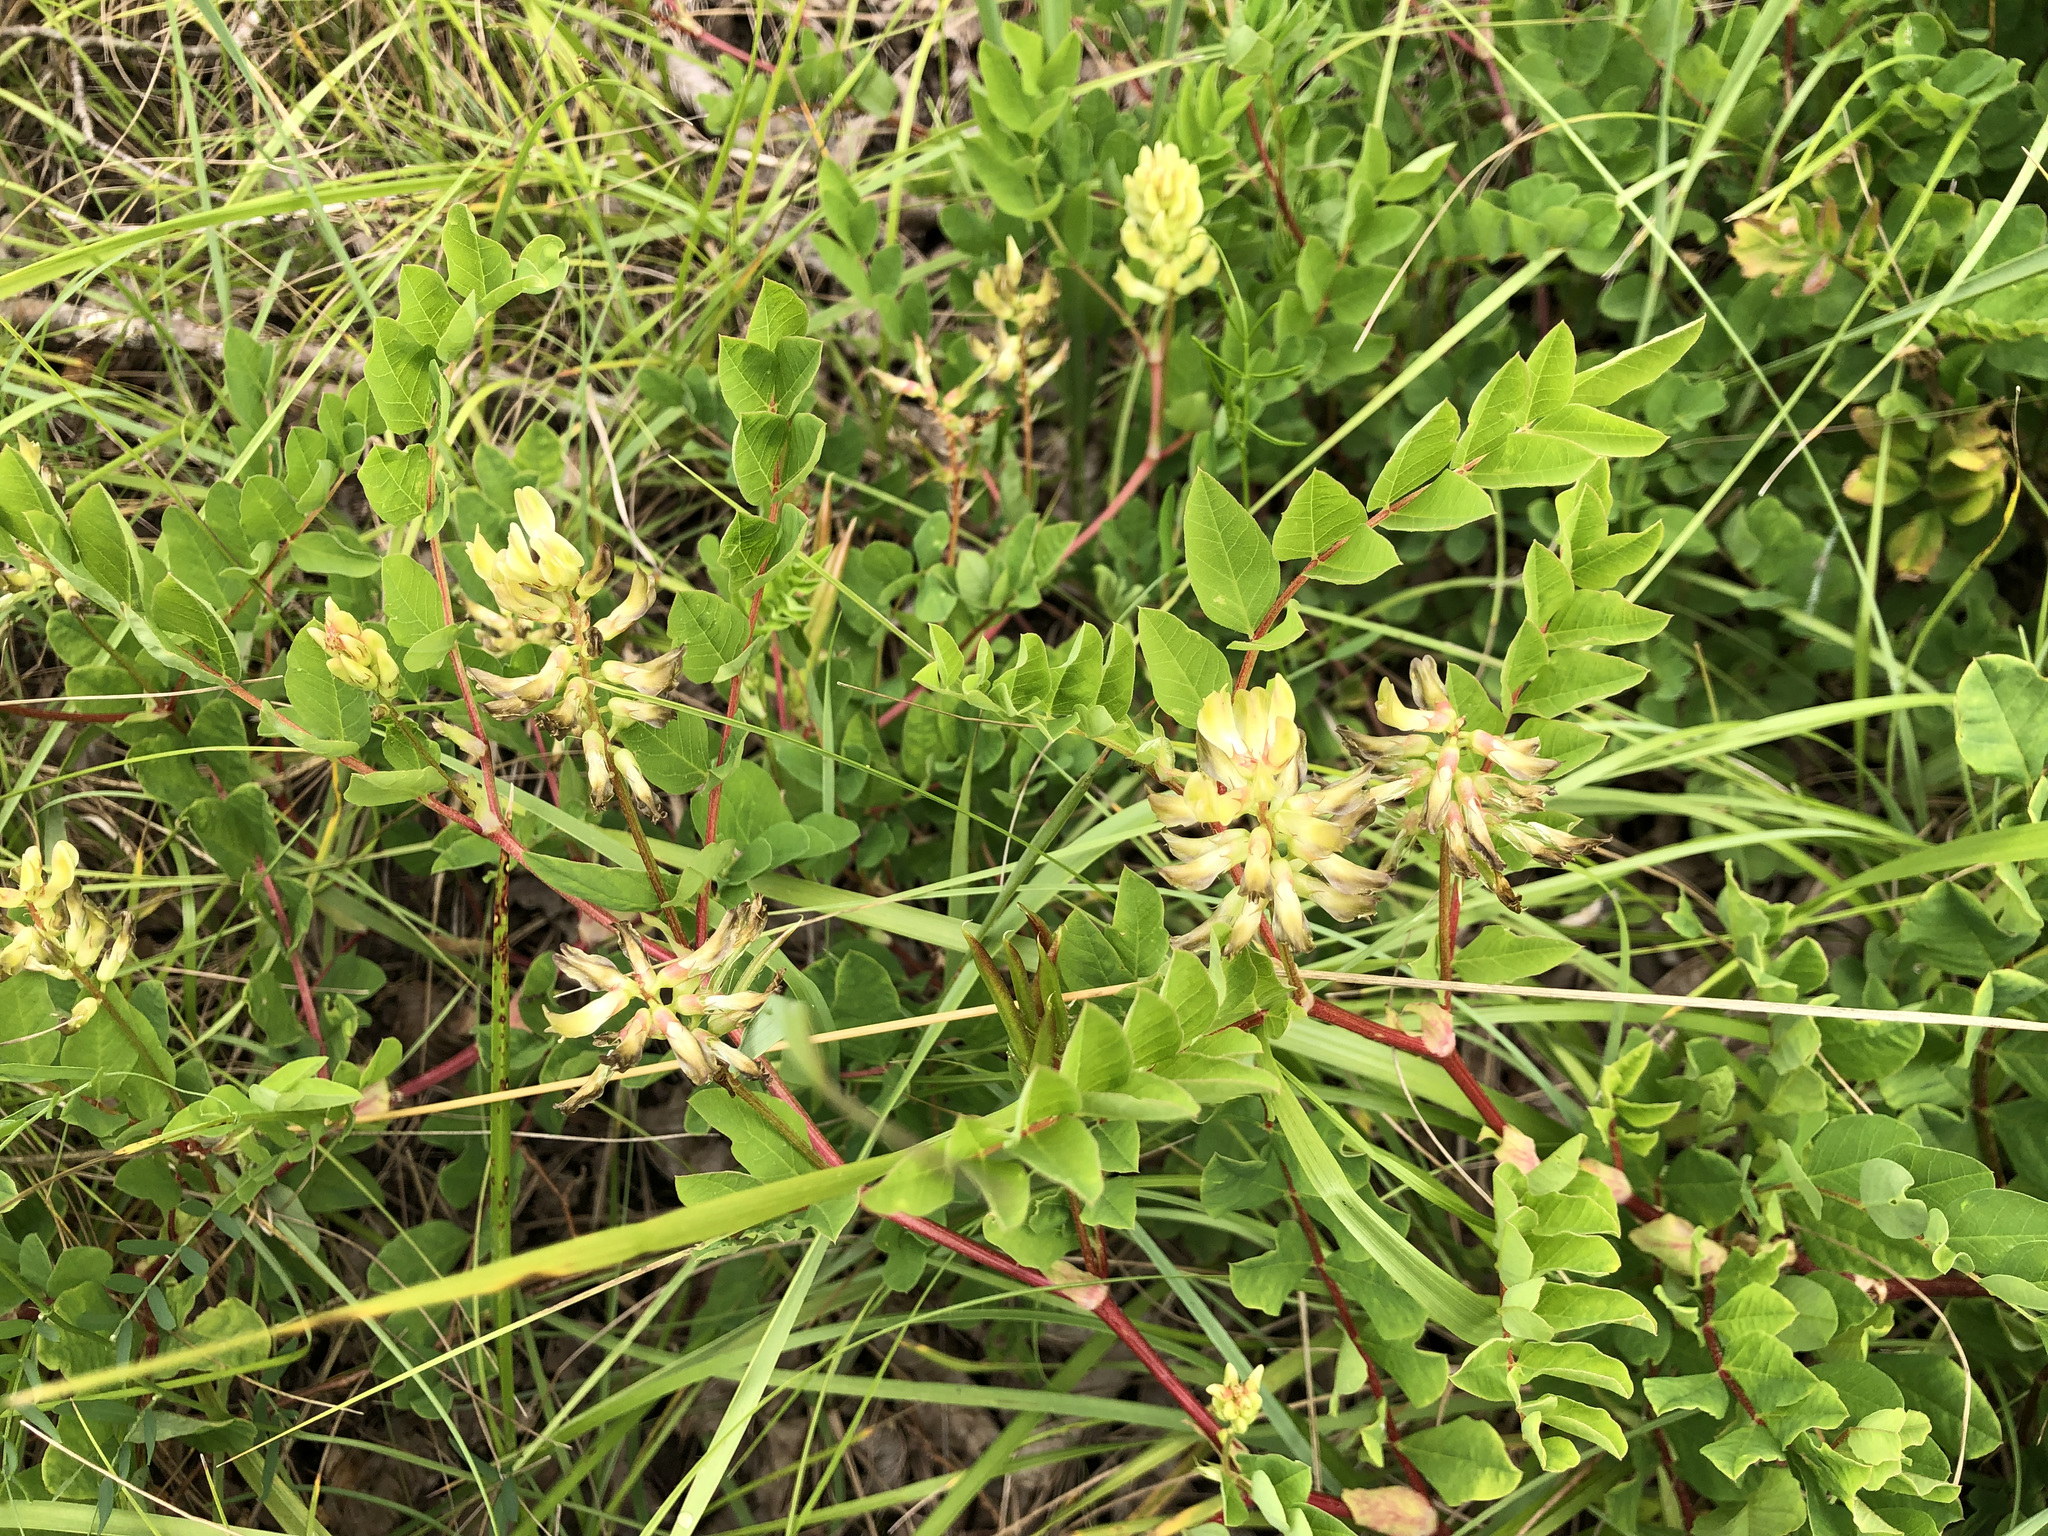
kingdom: Plantae
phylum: Tracheophyta
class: Magnoliopsida
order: Fabales
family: Fabaceae
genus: Astragalus
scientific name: Astragalus glycyphyllos
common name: Wild liquorice
